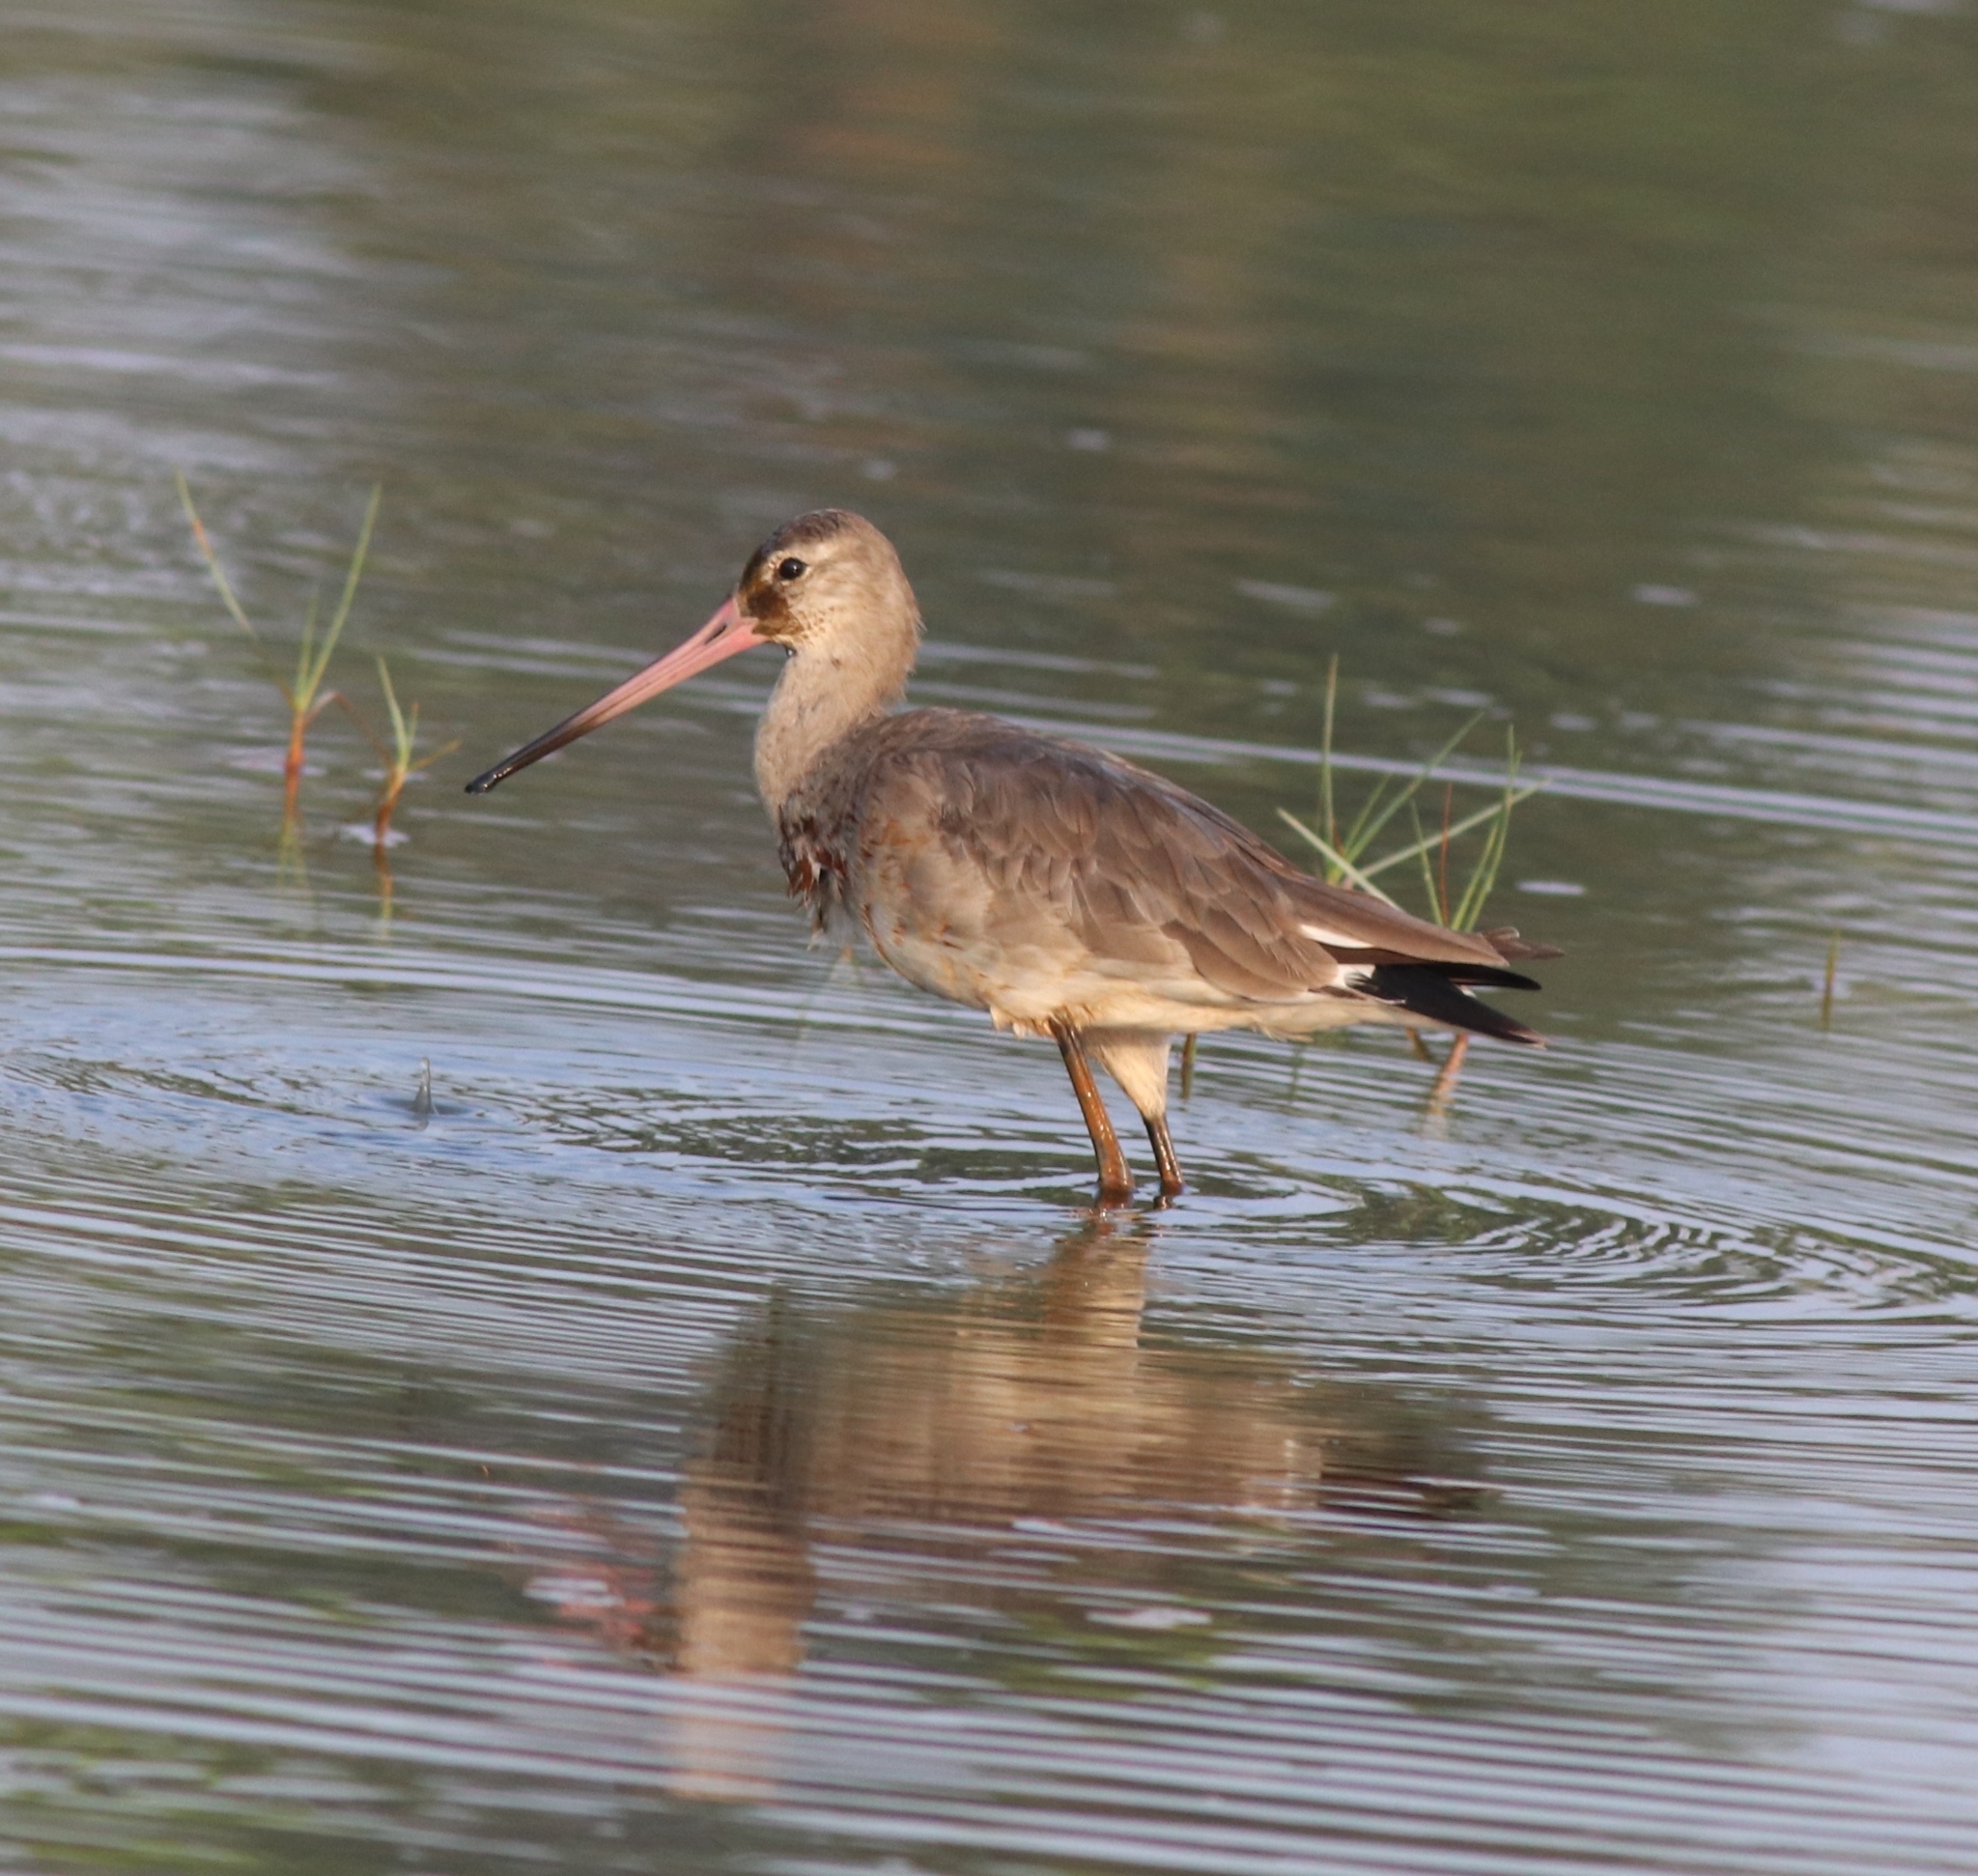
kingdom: Animalia
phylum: Chordata
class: Aves
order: Charadriiformes
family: Scolopacidae
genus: Limosa
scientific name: Limosa limosa
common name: Black-tailed godwit
